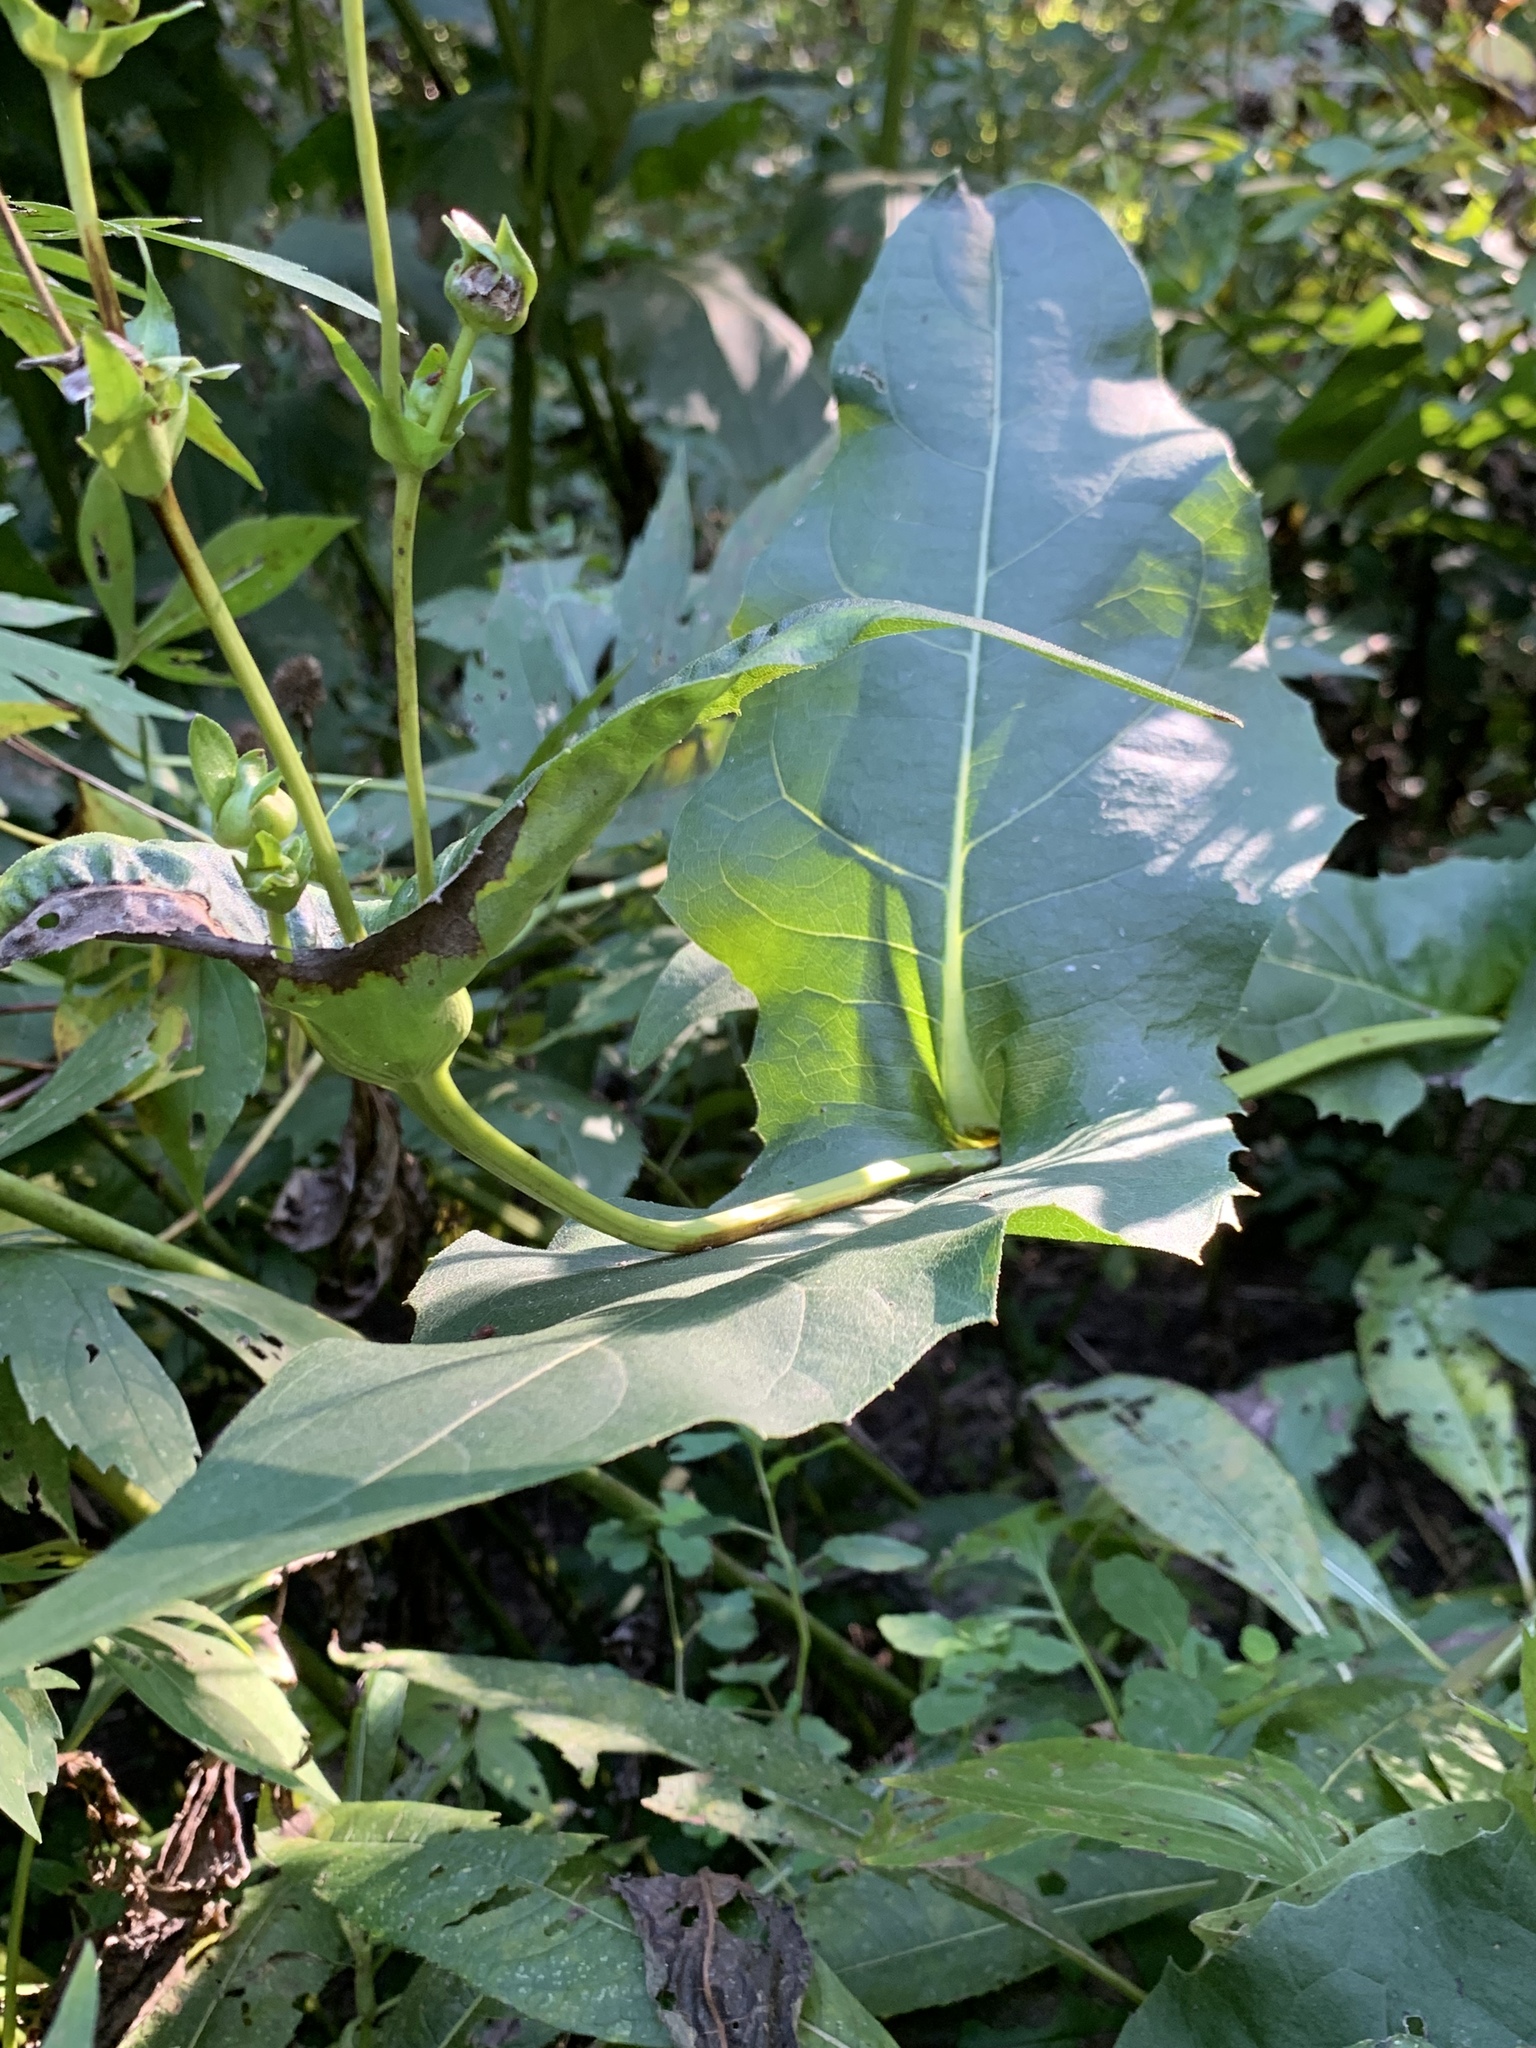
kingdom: Plantae
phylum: Tracheophyta
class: Magnoliopsida
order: Asterales
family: Asteraceae
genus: Silphium
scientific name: Silphium perfoliatum
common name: Cup-plant
